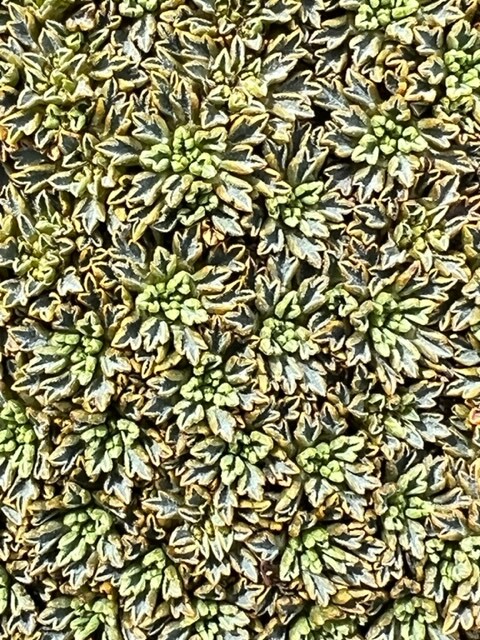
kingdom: Plantae
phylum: Tracheophyta
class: Magnoliopsida
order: Apiales
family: Apiaceae
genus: Bolax
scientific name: Bolax gummifera
